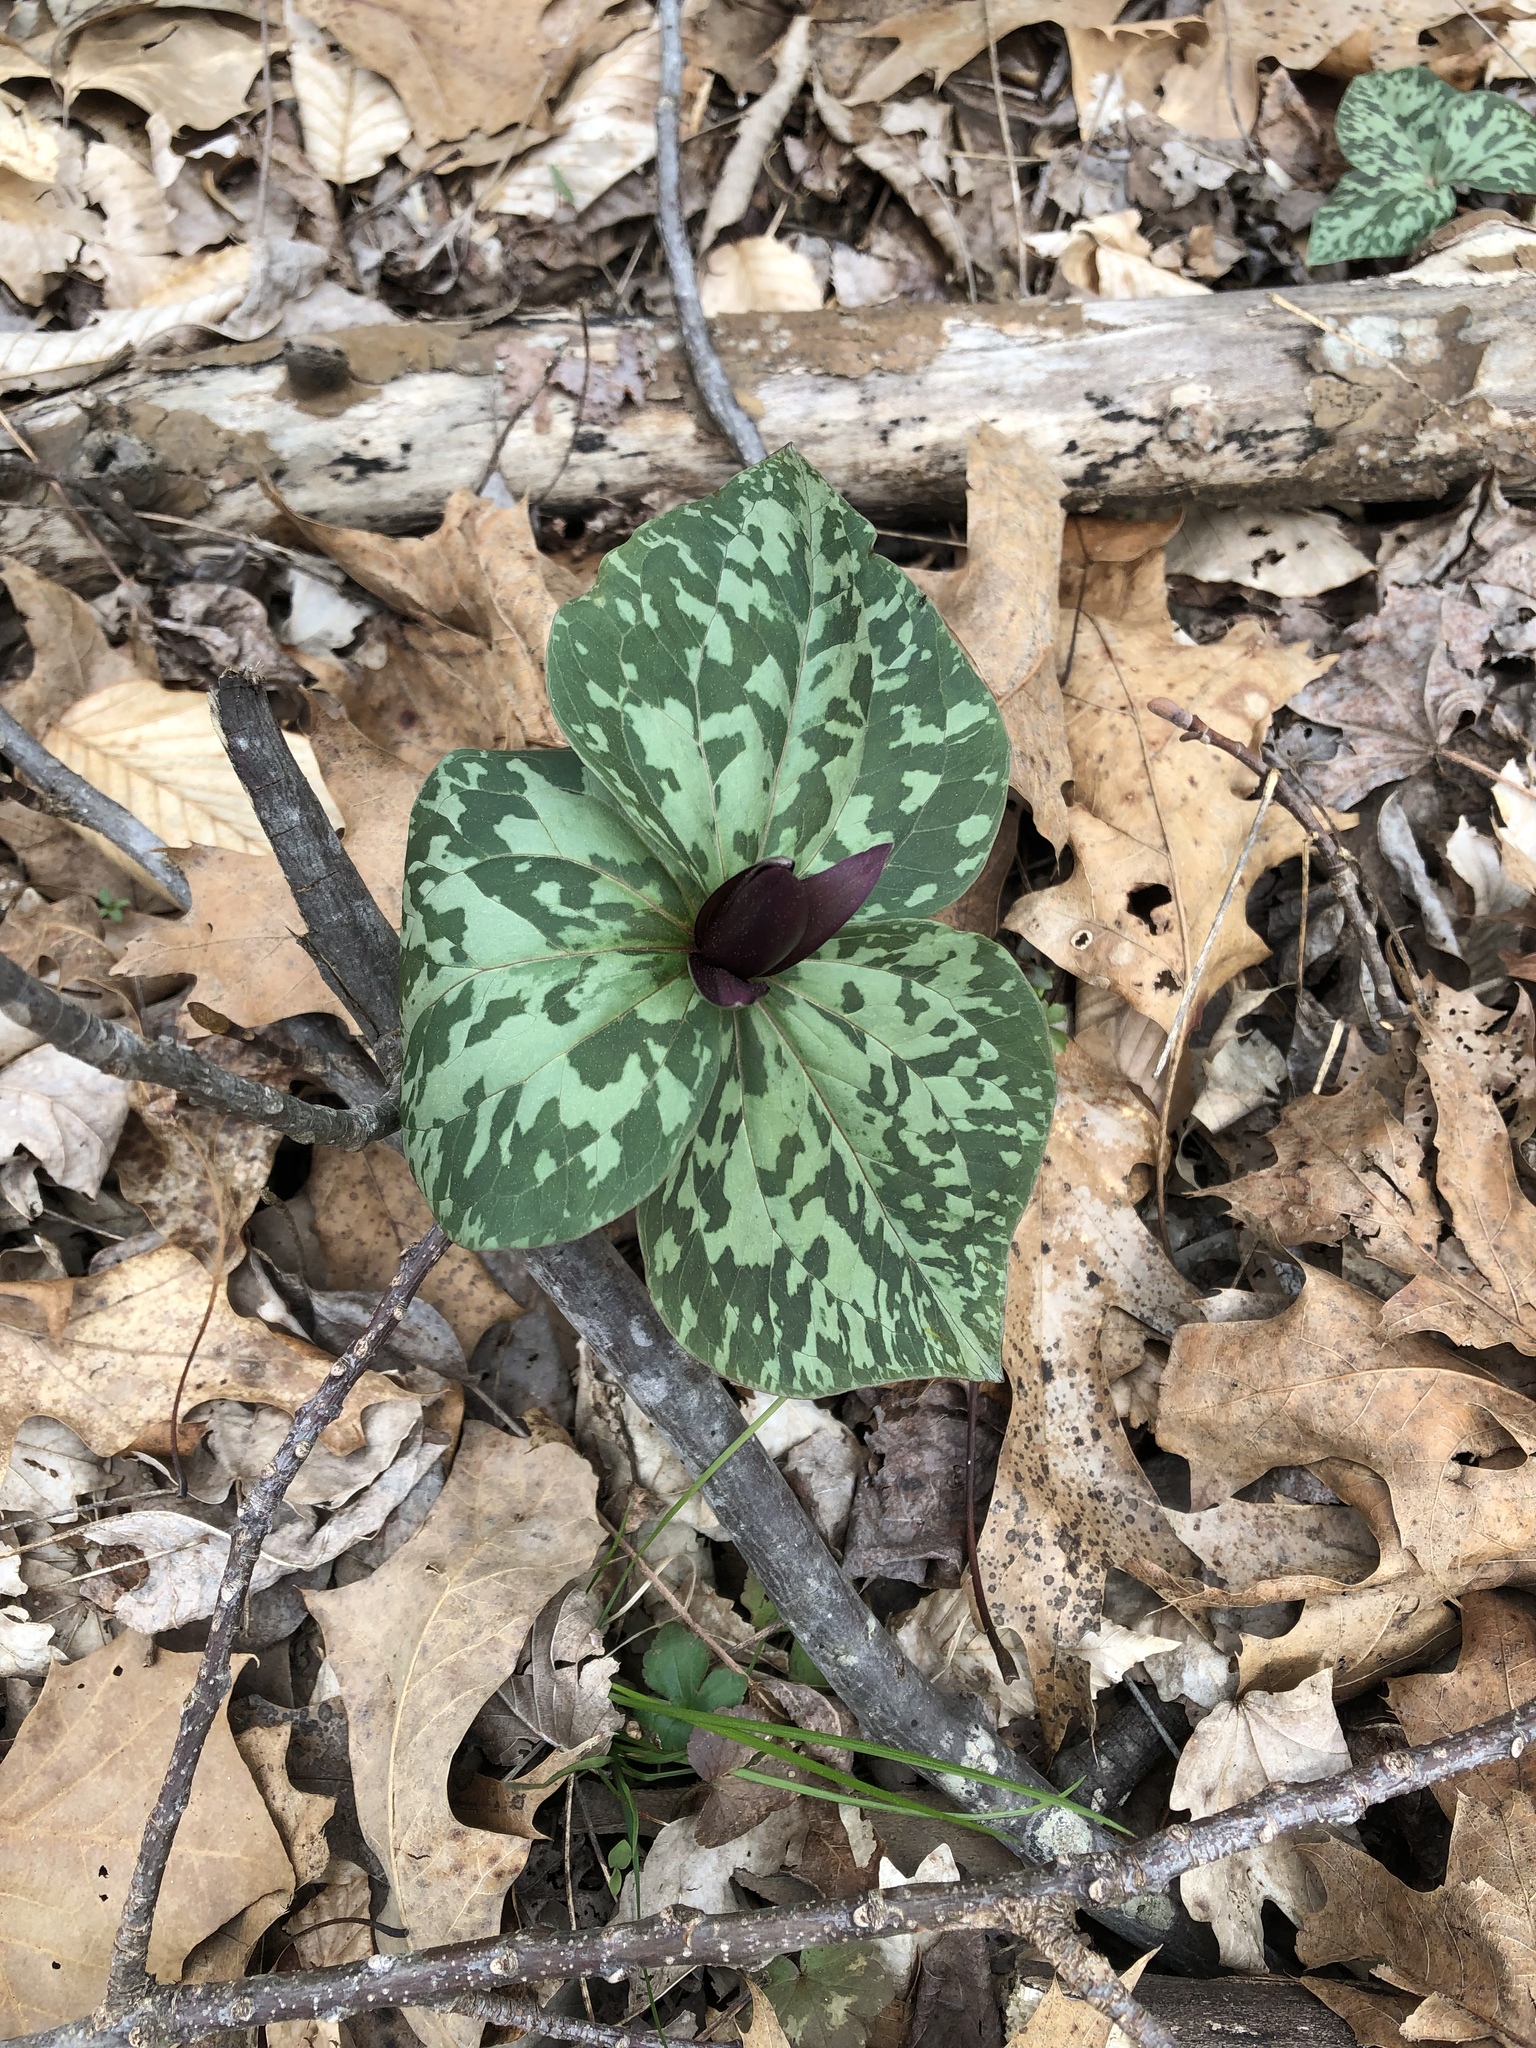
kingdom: Plantae
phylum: Tracheophyta
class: Liliopsida
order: Liliales
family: Melanthiaceae
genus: Trillium
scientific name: Trillium cuneatum
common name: Cuneate trillium
